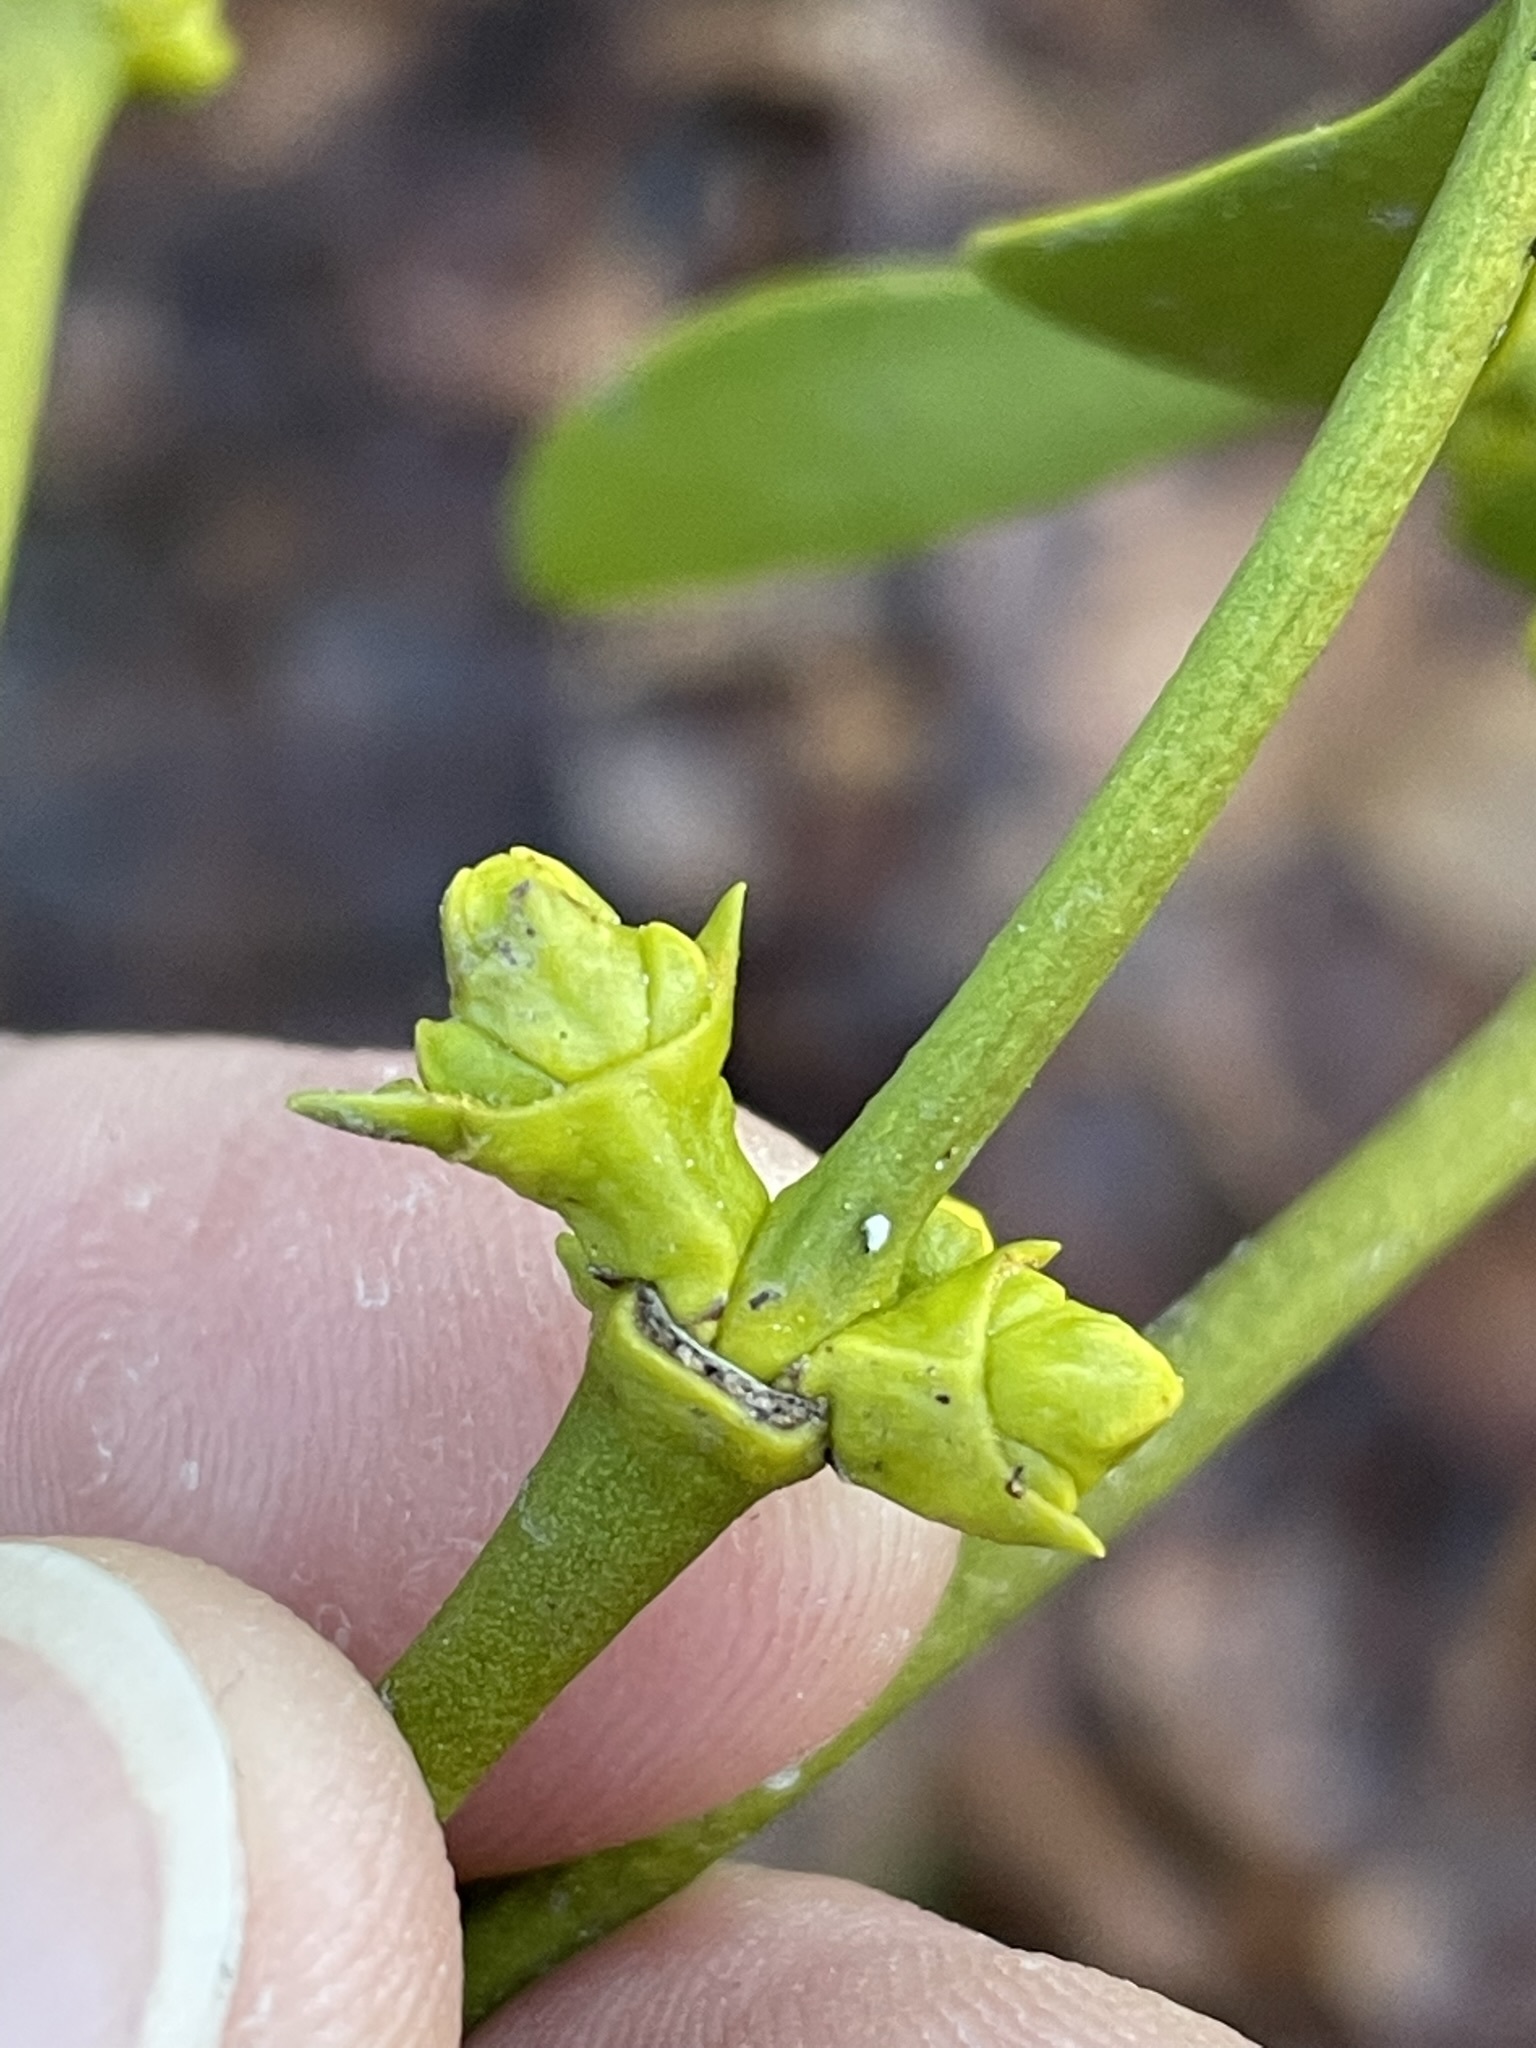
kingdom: Plantae
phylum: Tracheophyta
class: Magnoliopsida
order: Santalales
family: Viscaceae
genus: Viscum
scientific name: Viscum album
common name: Mistletoe
